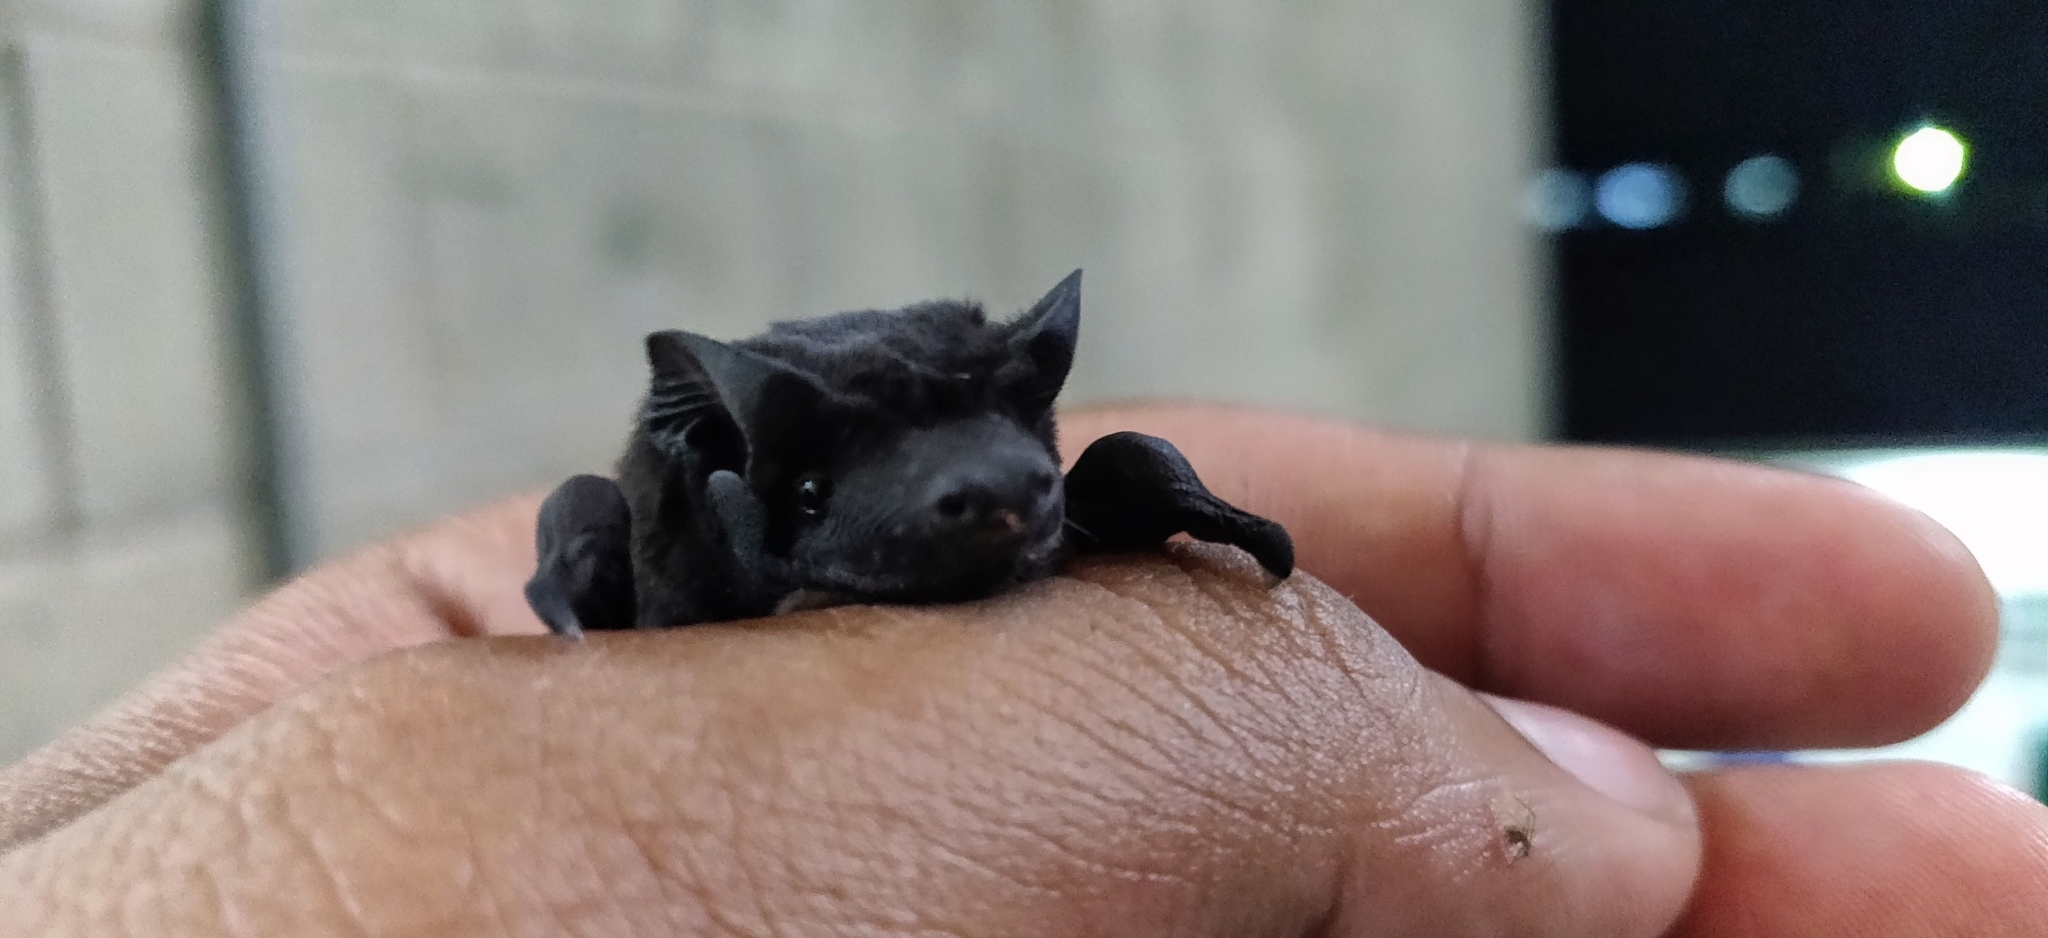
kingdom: Animalia
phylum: Chordata
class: Mammalia
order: Chiroptera
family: Molossidae
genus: Molossus
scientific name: Molossus rufus
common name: Black mastiff bat
